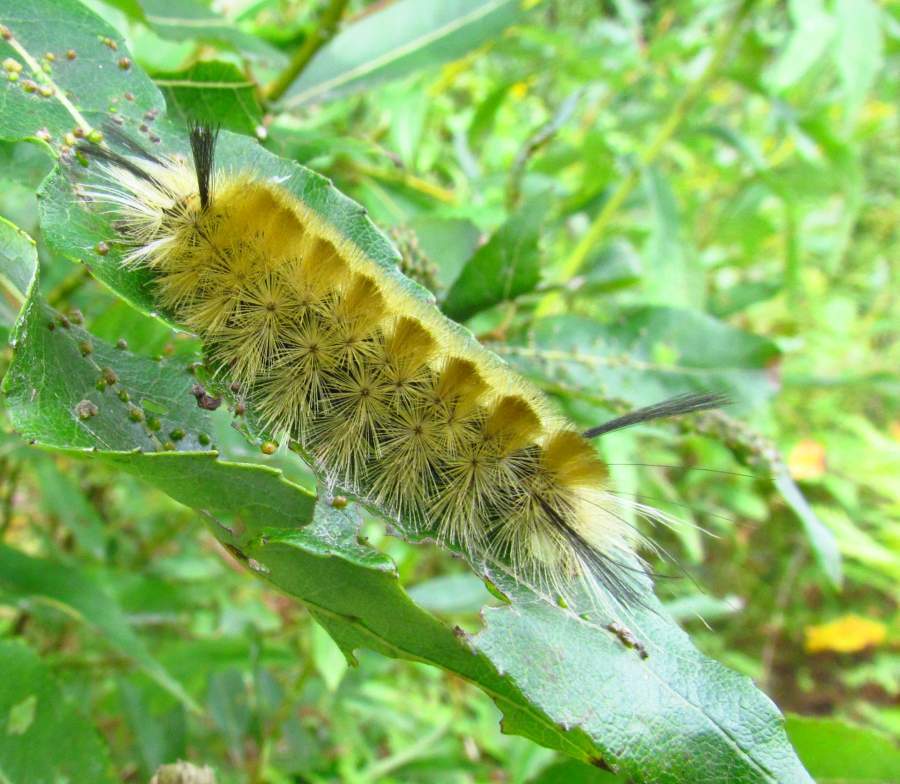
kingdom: Animalia
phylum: Arthropoda
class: Insecta
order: Lepidoptera
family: Erebidae
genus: Halysidota
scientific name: Halysidota tessellaris
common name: Banded tussock moth
